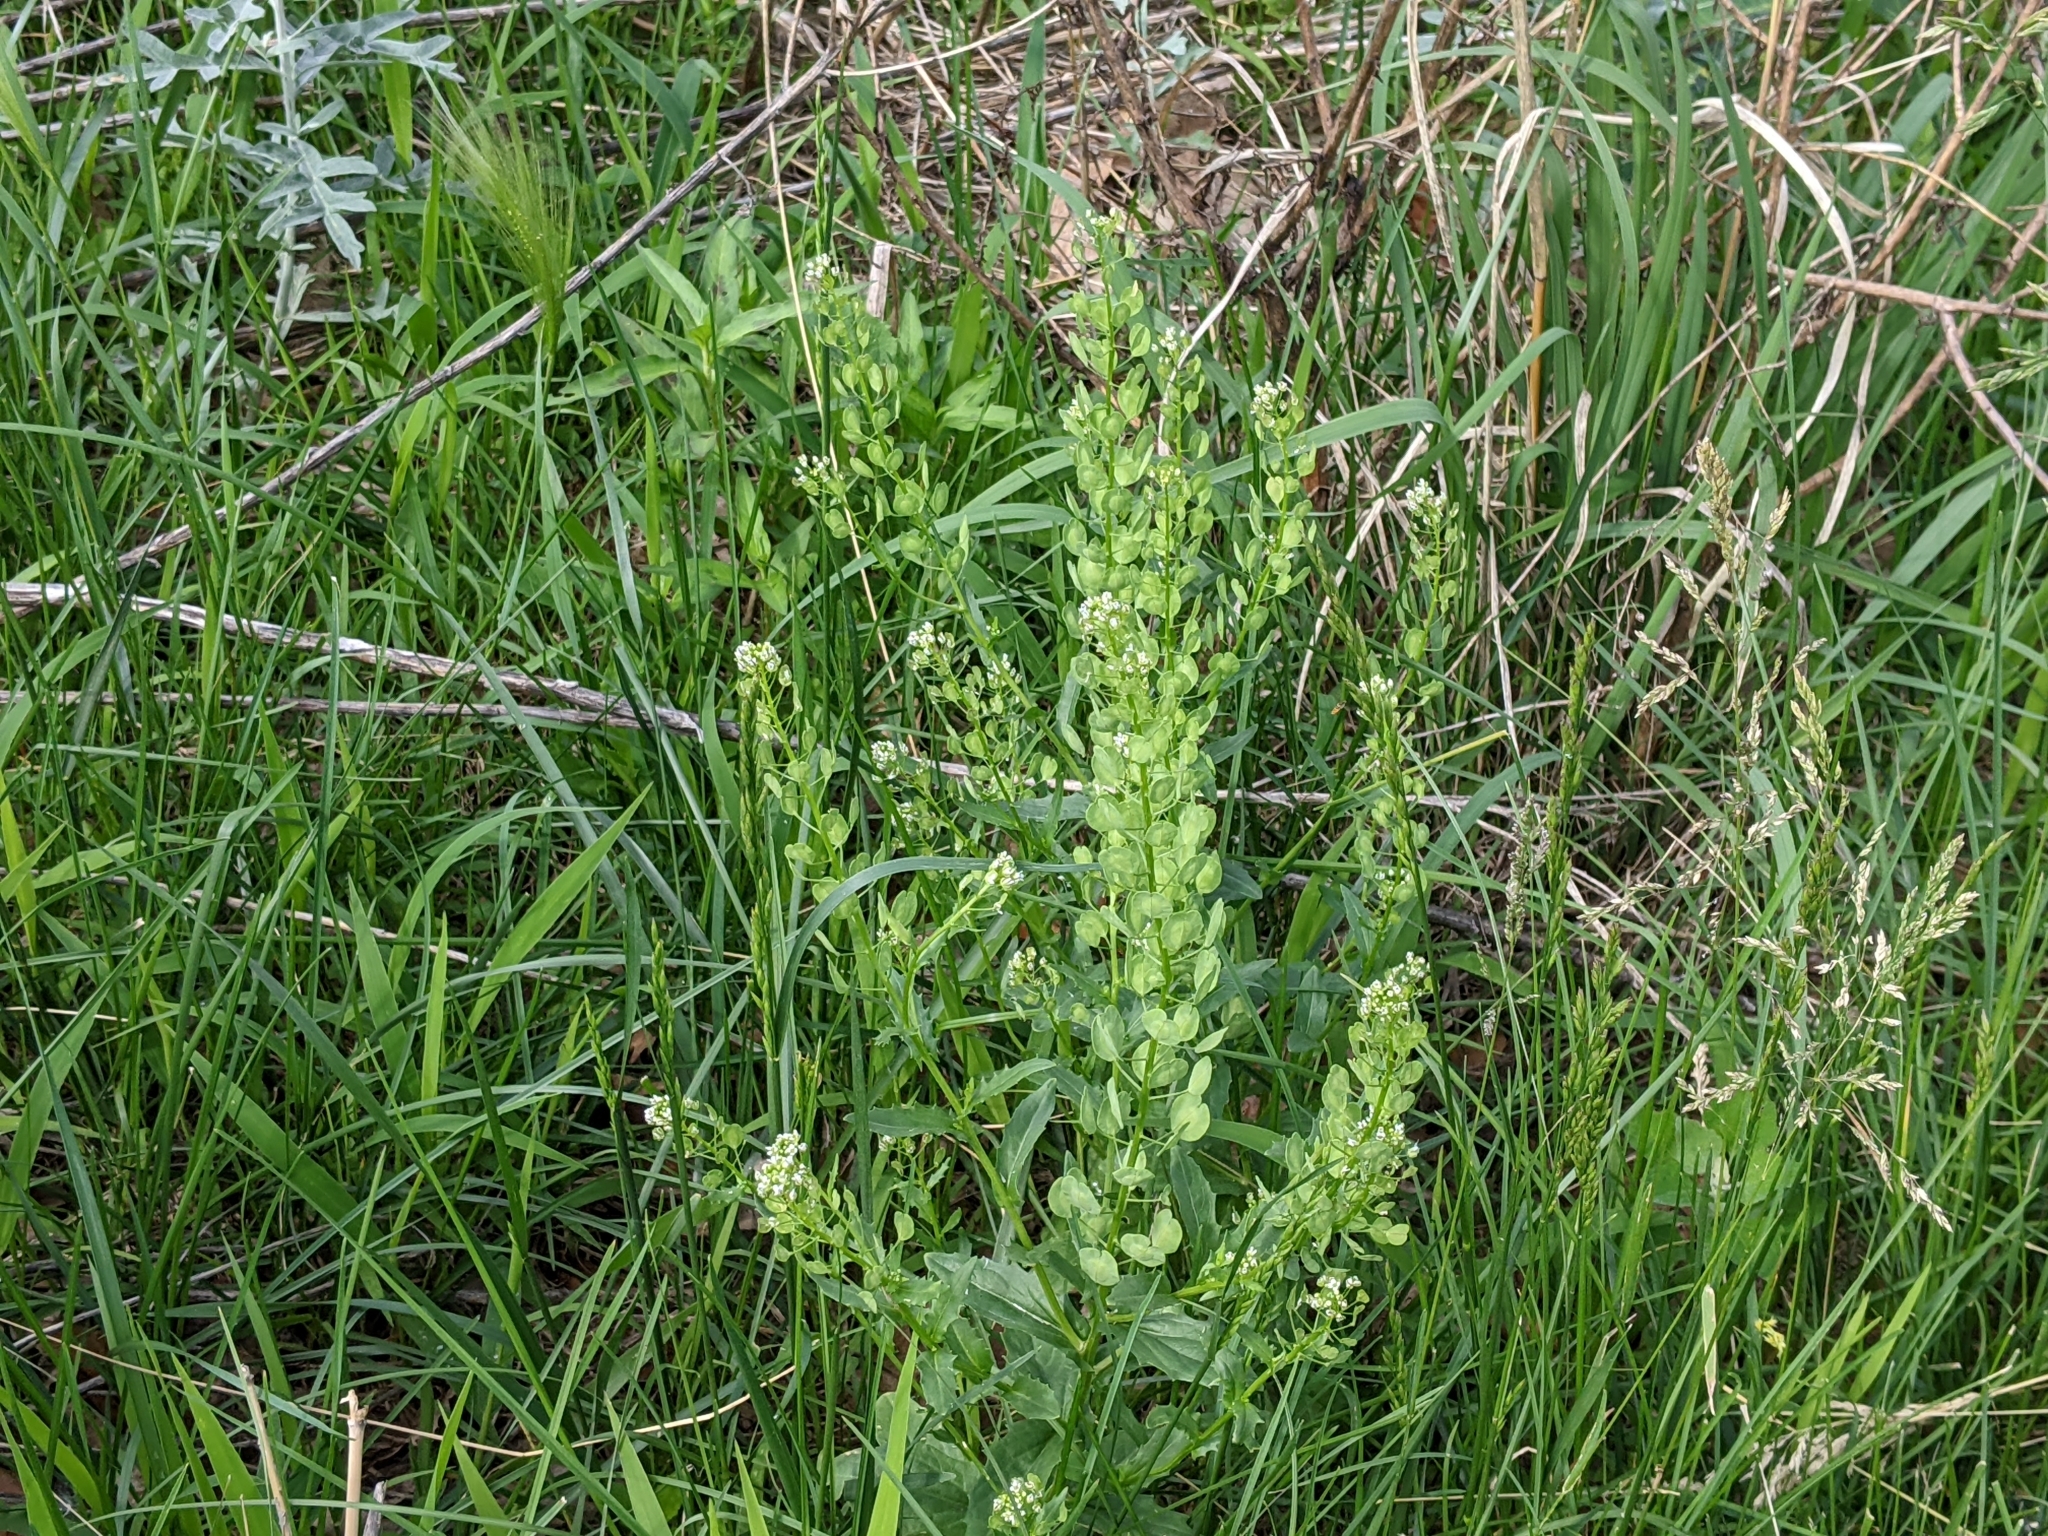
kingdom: Plantae
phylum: Tracheophyta
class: Magnoliopsida
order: Brassicales
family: Brassicaceae
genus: Thlaspi
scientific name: Thlaspi arvense
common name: Field pennycress
